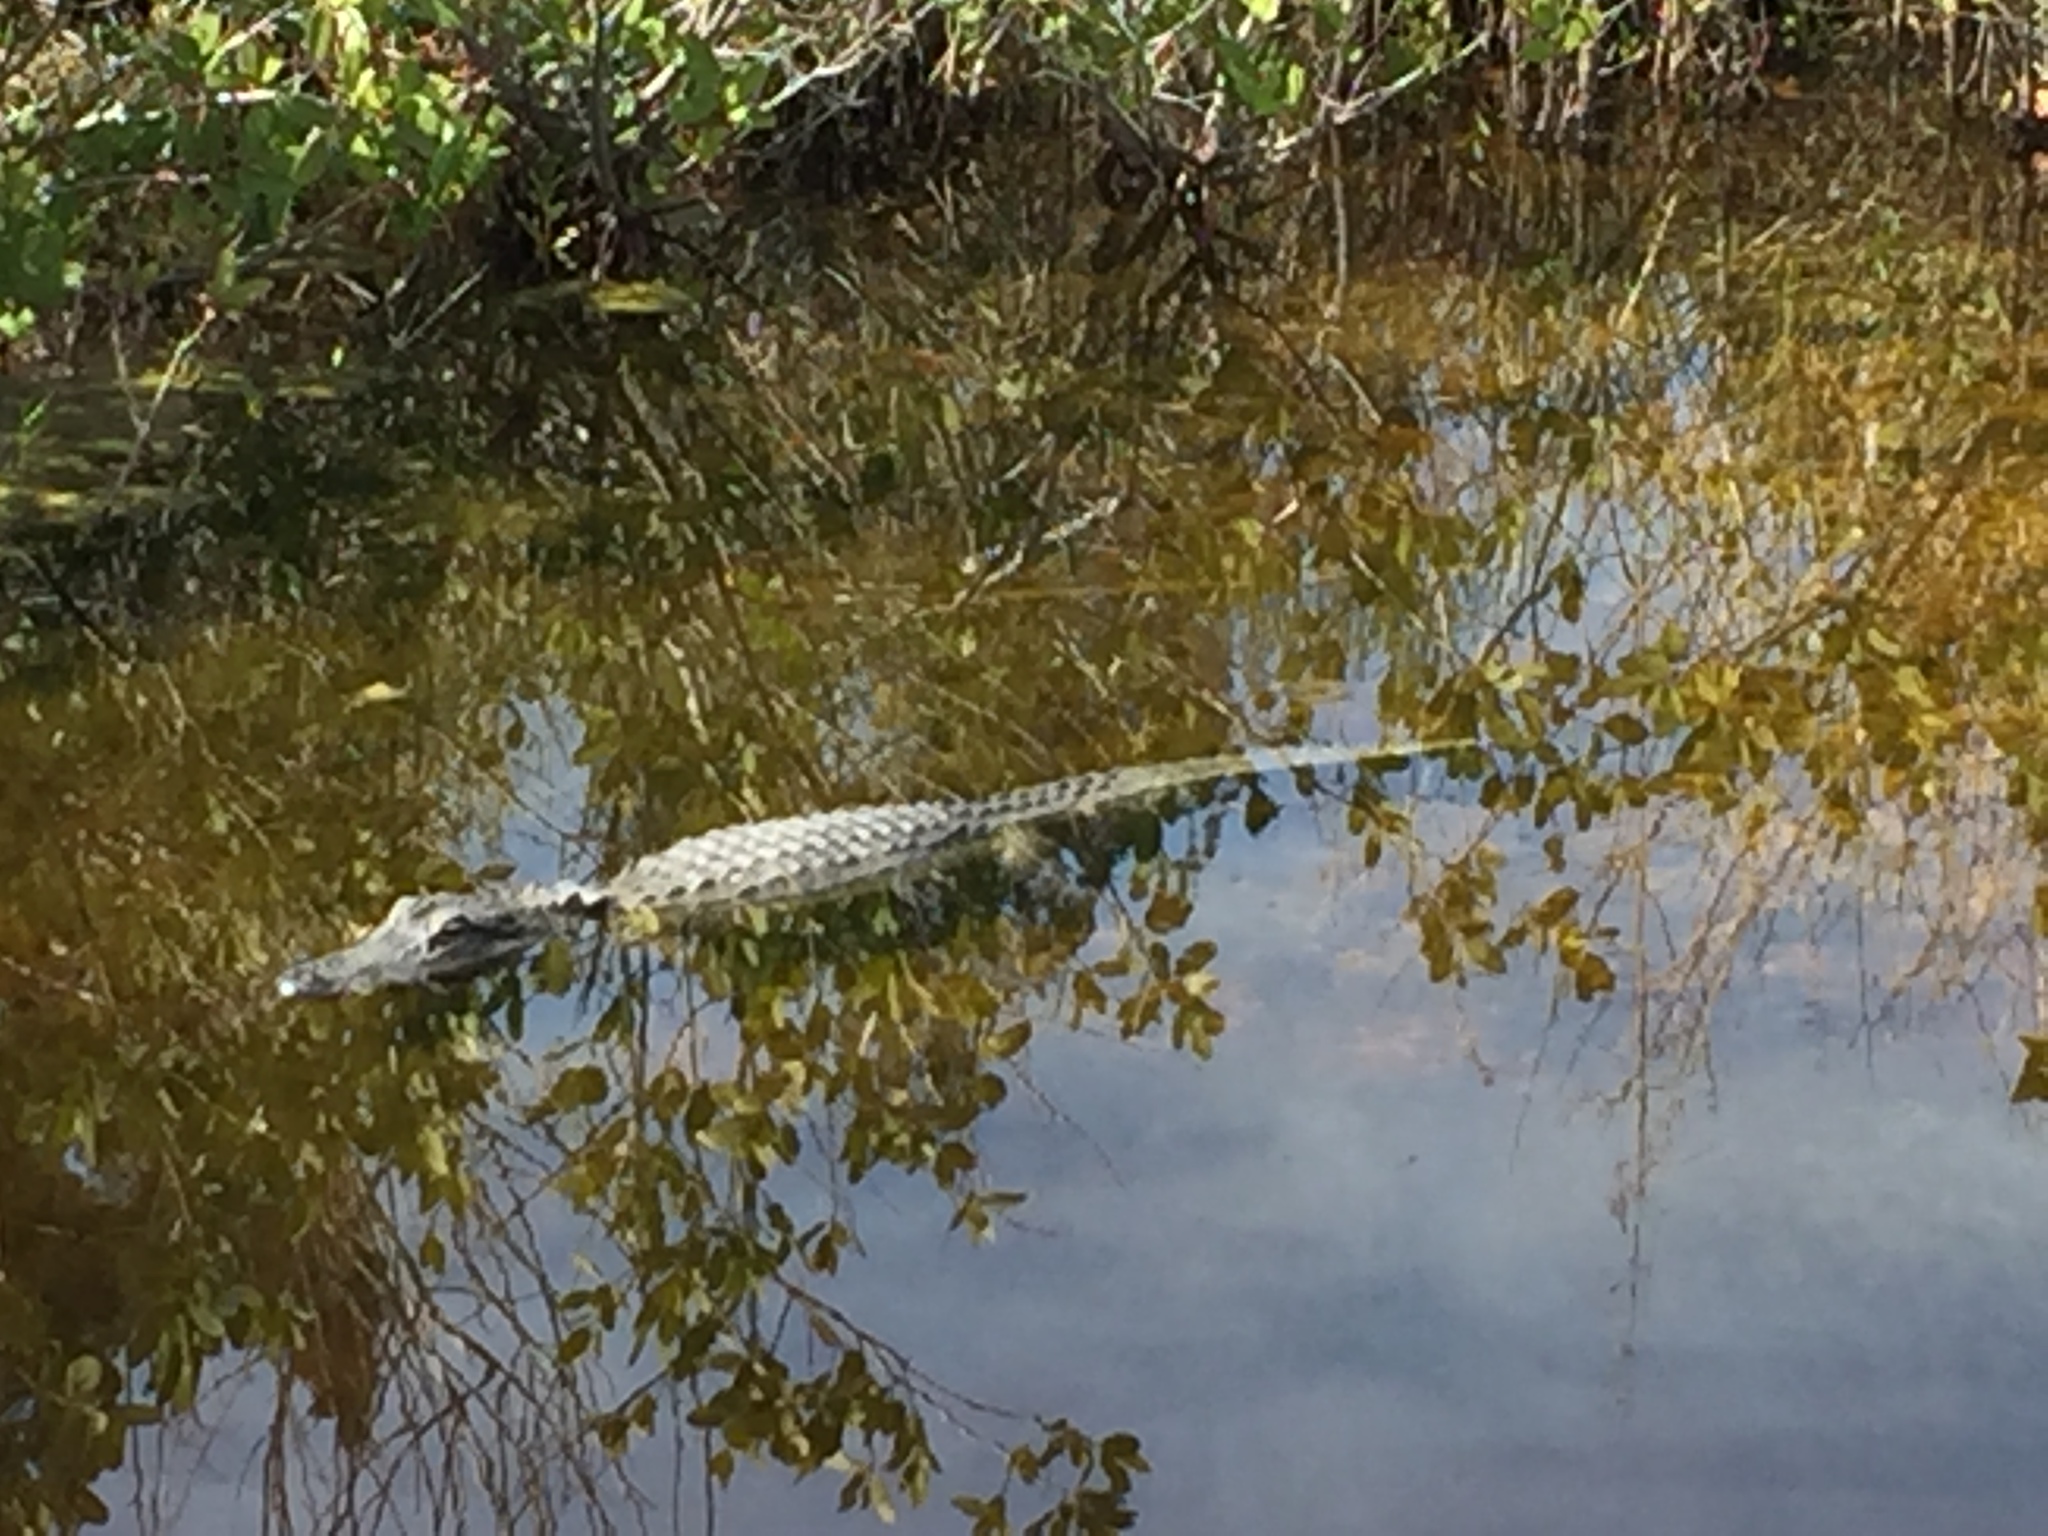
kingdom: Animalia
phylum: Chordata
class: Crocodylia
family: Alligatoridae
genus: Alligator
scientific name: Alligator mississippiensis
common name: American alligator
